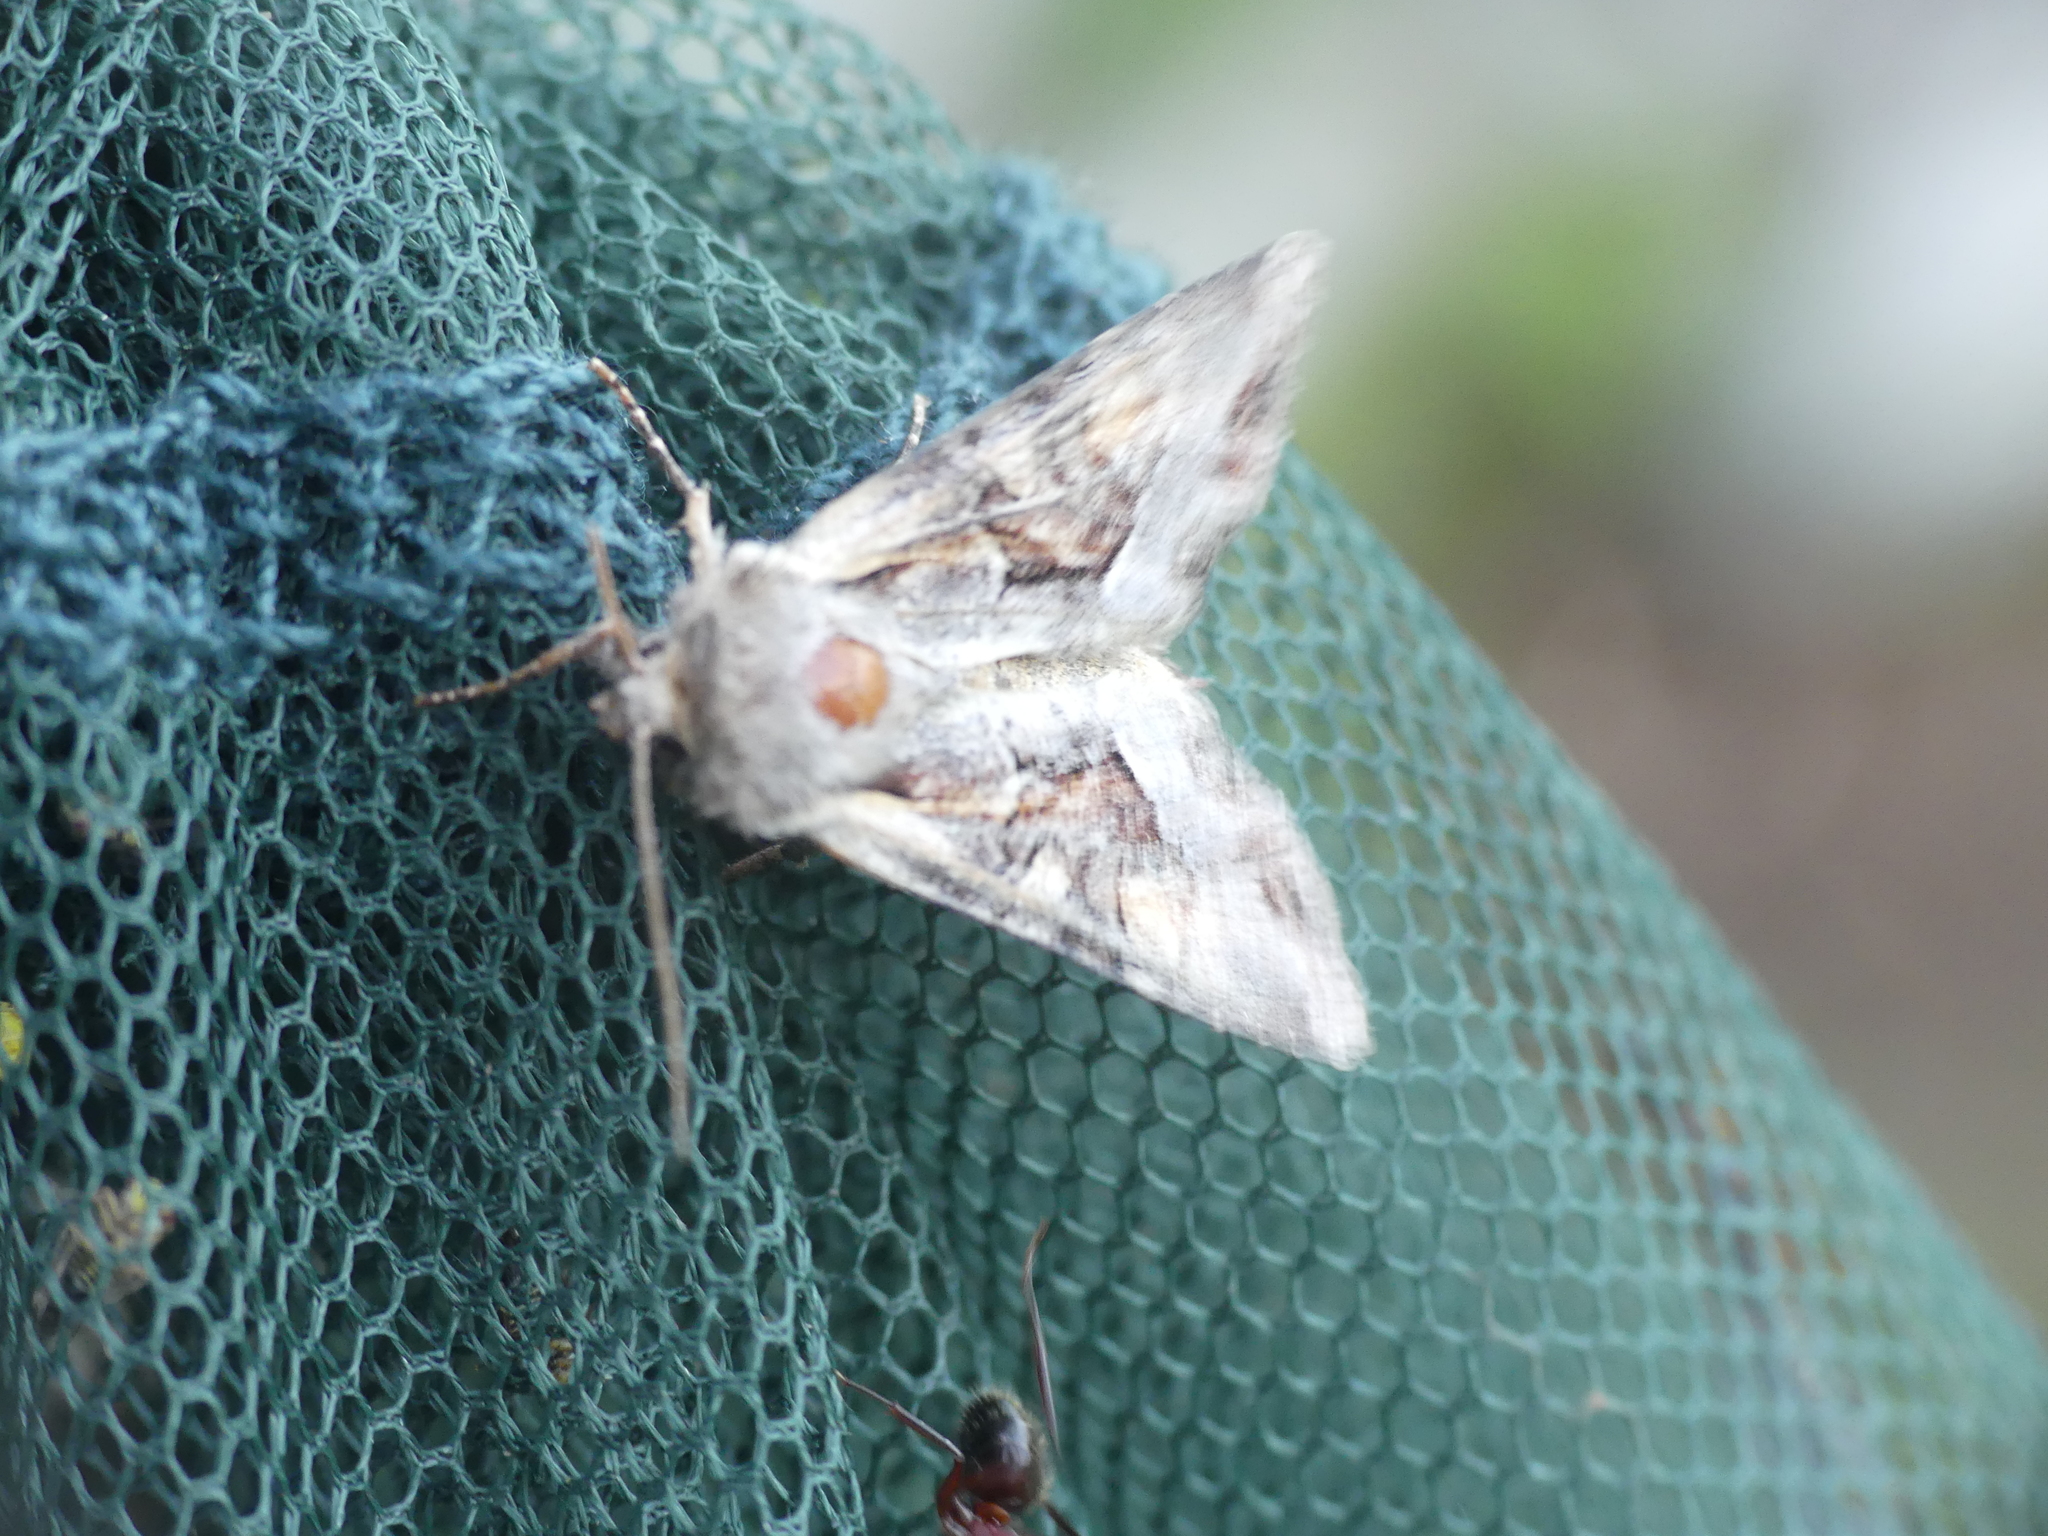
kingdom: Animalia
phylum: Arthropoda
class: Insecta
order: Lepidoptera
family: Noctuidae
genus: Lacanobia
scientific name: Lacanobia w-latinum
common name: Light brocade
